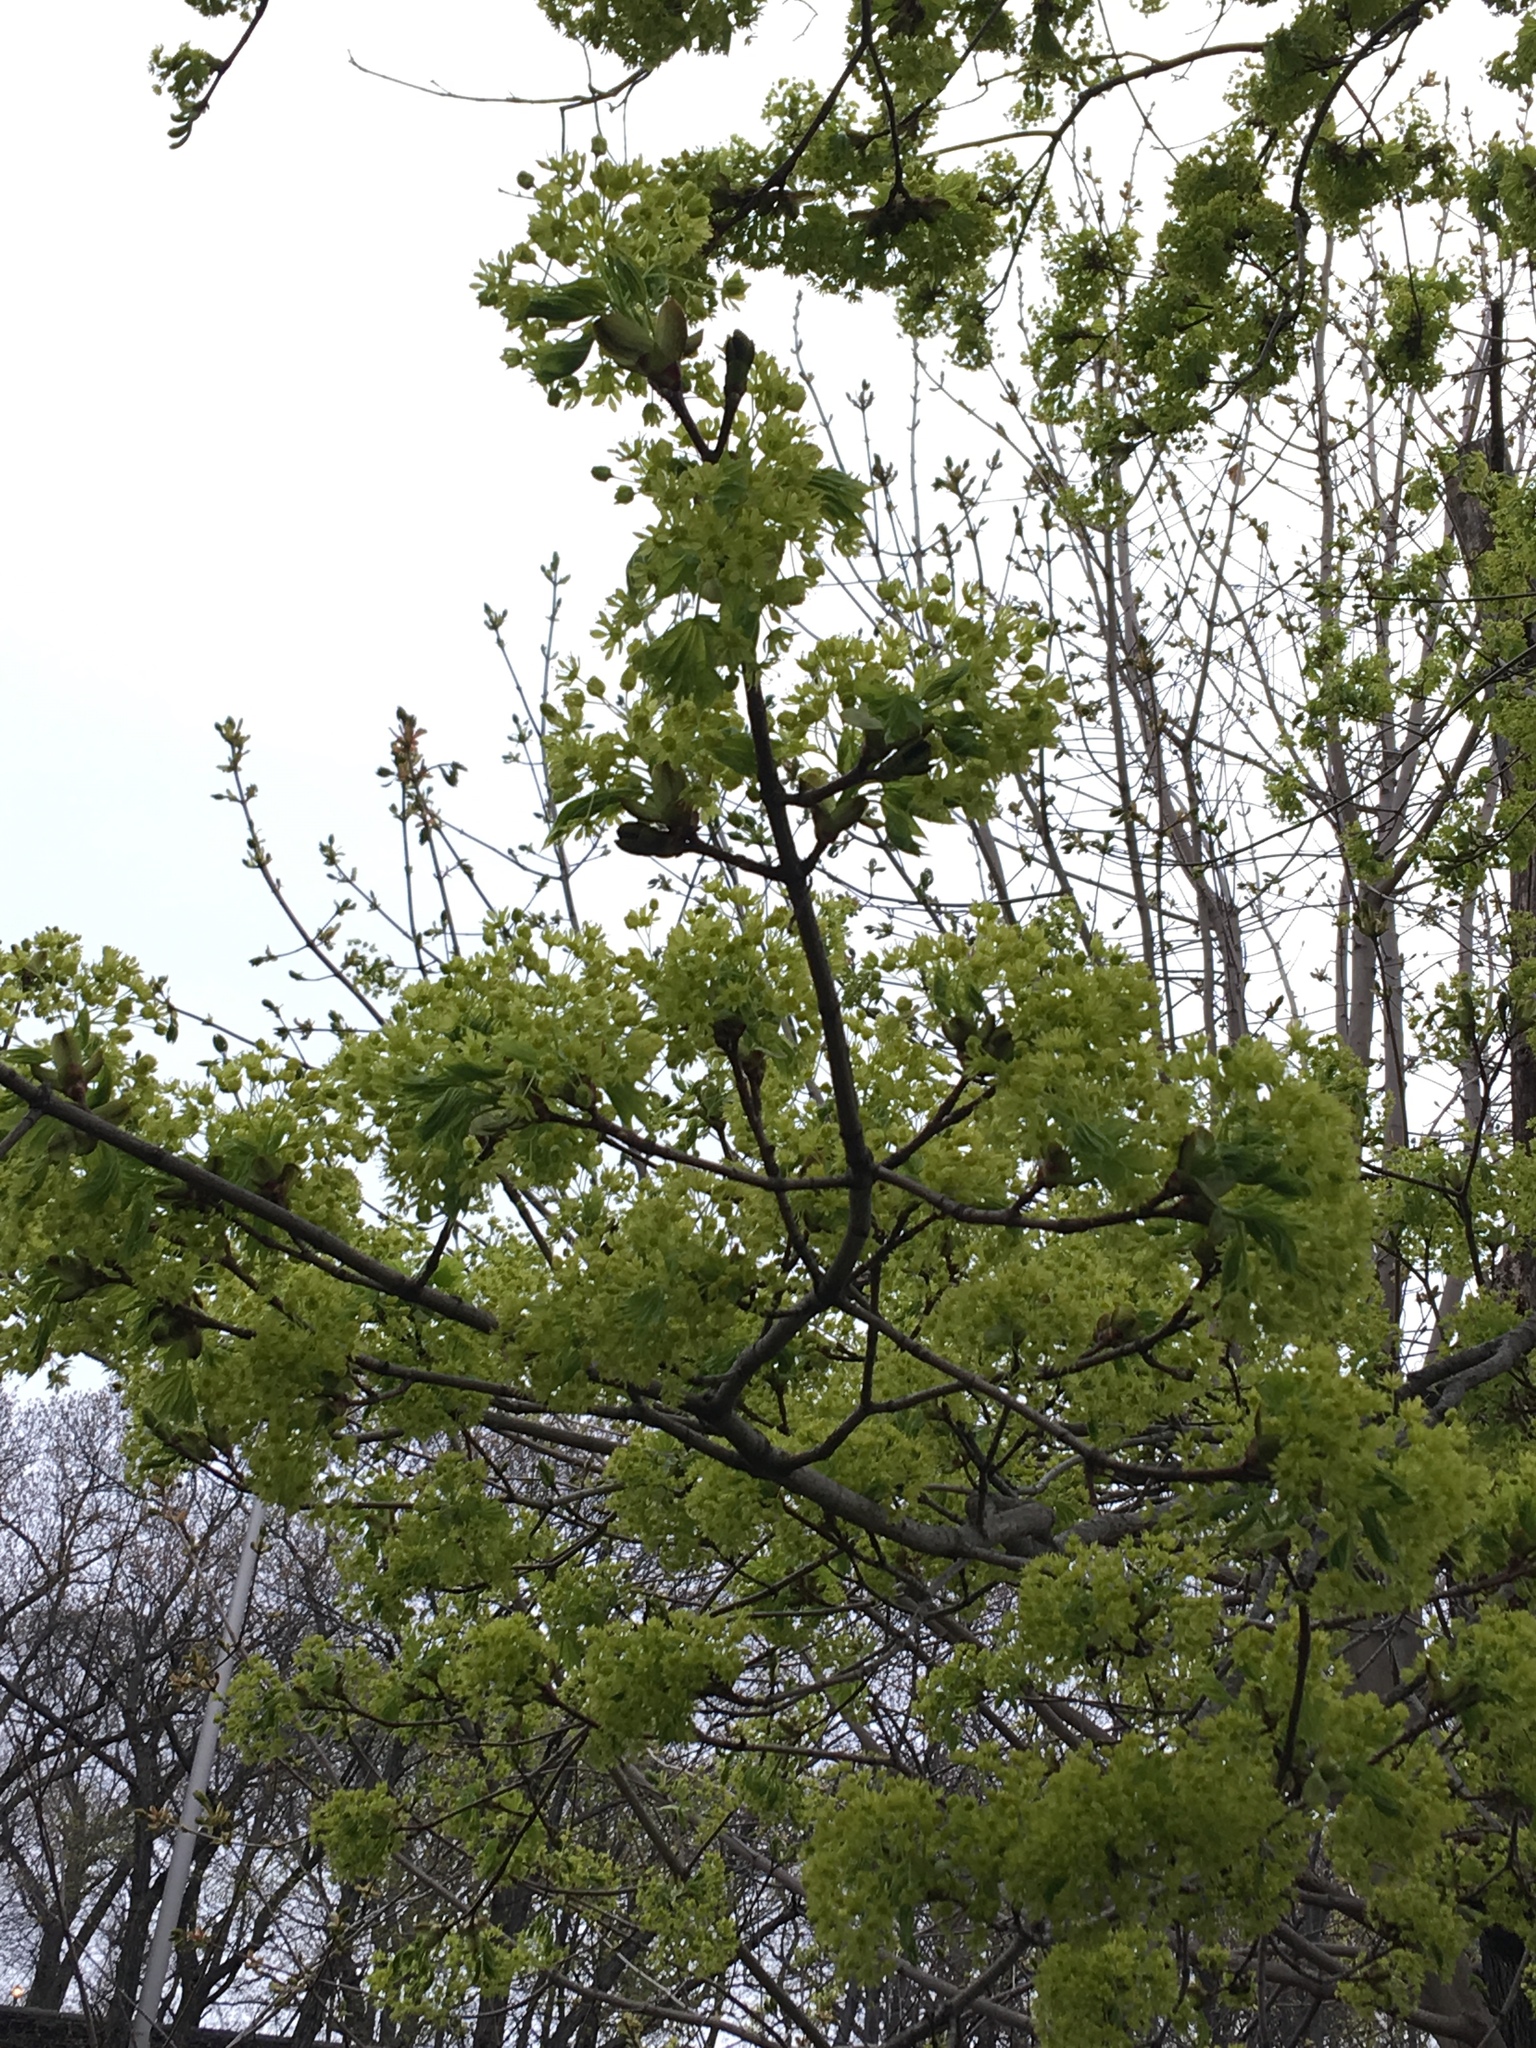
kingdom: Plantae
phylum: Tracheophyta
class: Magnoliopsida
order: Sapindales
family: Sapindaceae
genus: Acer
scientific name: Acer platanoides
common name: Norway maple
